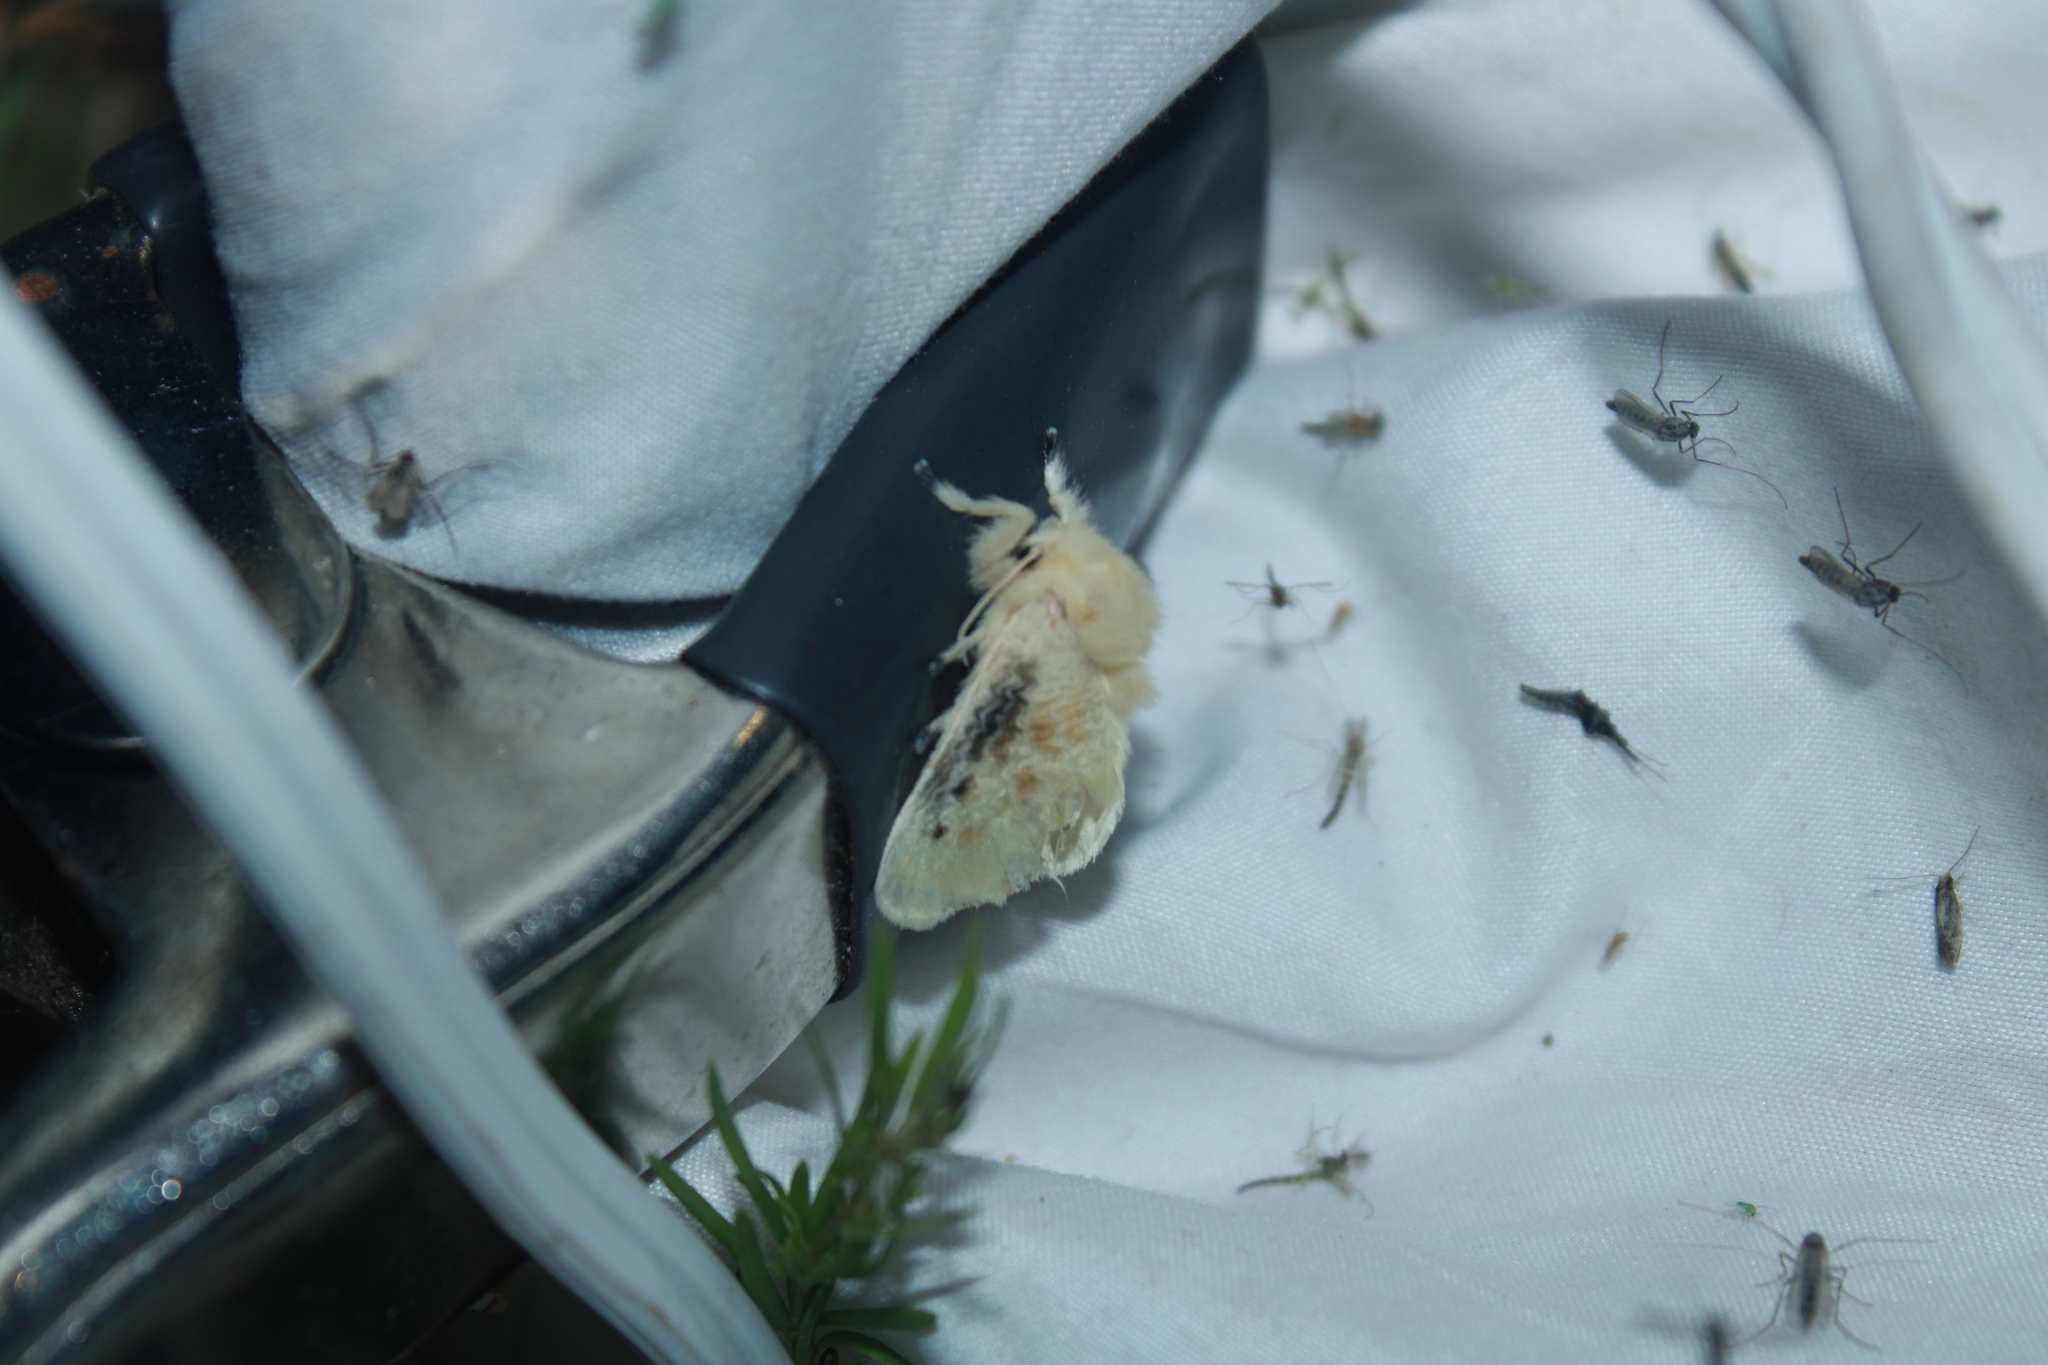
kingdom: Animalia
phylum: Arthropoda
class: Insecta
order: Lepidoptera
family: Megalopygidae
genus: Megalopyge
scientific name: Megalopyge crispata
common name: Black-waved flannel moth
